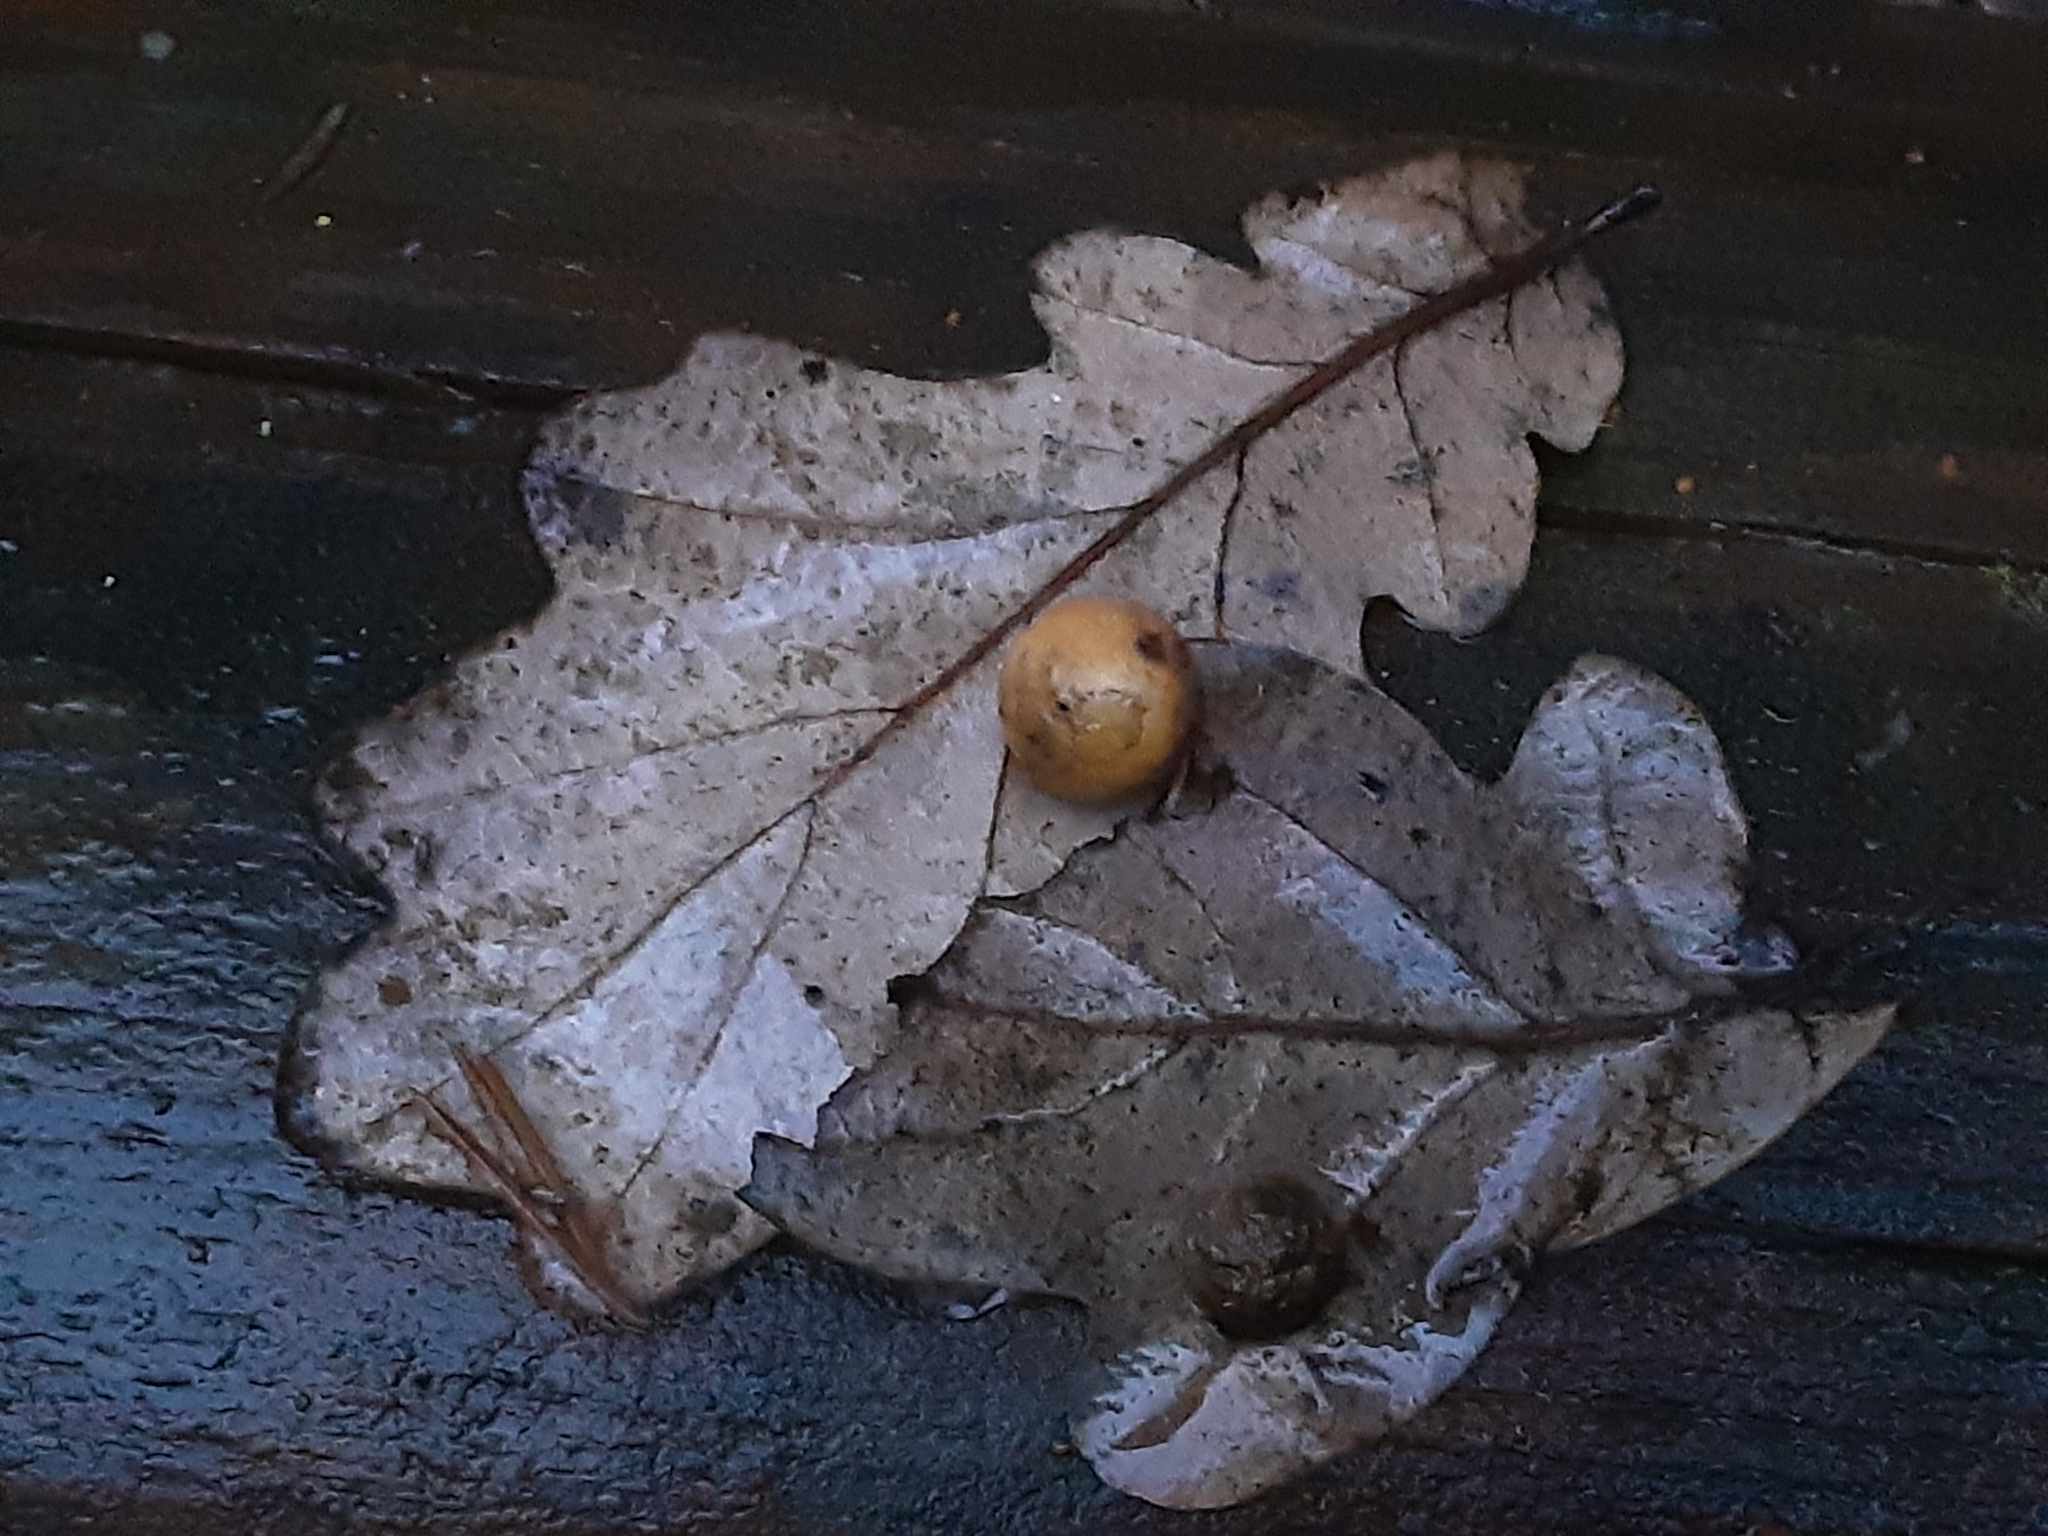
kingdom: Animalia
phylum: Arthropoda
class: Insecta
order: Hymenoptera
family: Cynipidae
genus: Cynips
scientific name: Cynips quercusfolii
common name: Cherry gall
